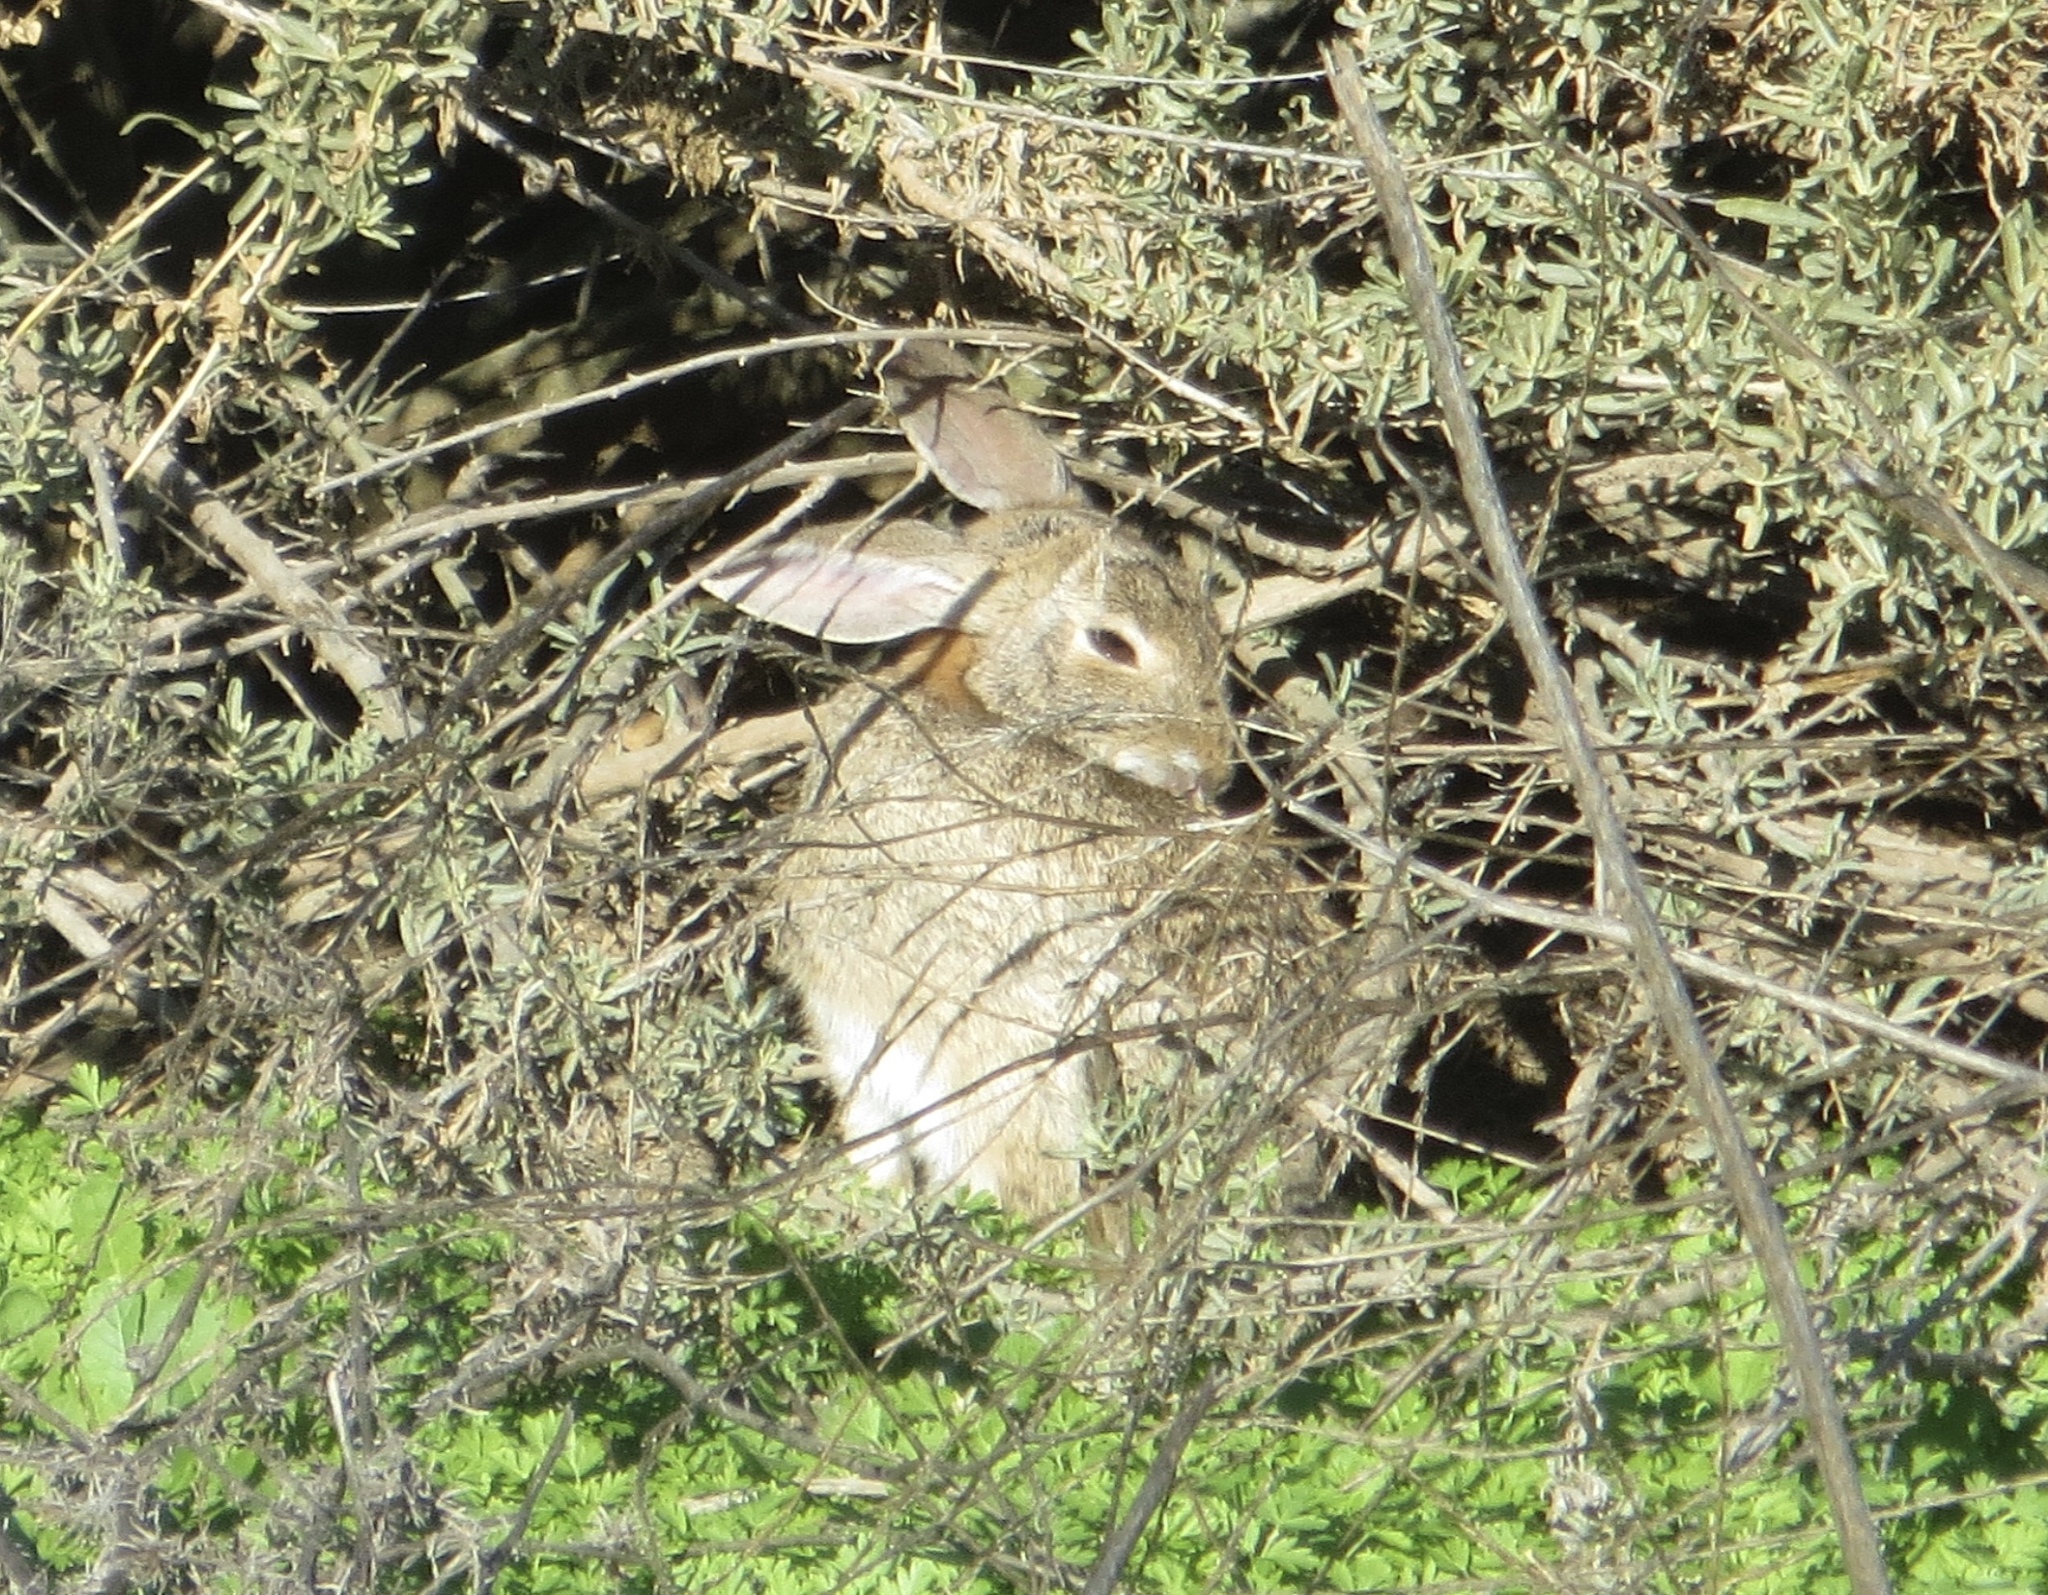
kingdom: Animalia
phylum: Chordata
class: Mammalia
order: Lagomorpha
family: Leporidae
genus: Sylvilagus
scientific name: Sylvilagus audubonii
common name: Desert cottontail
